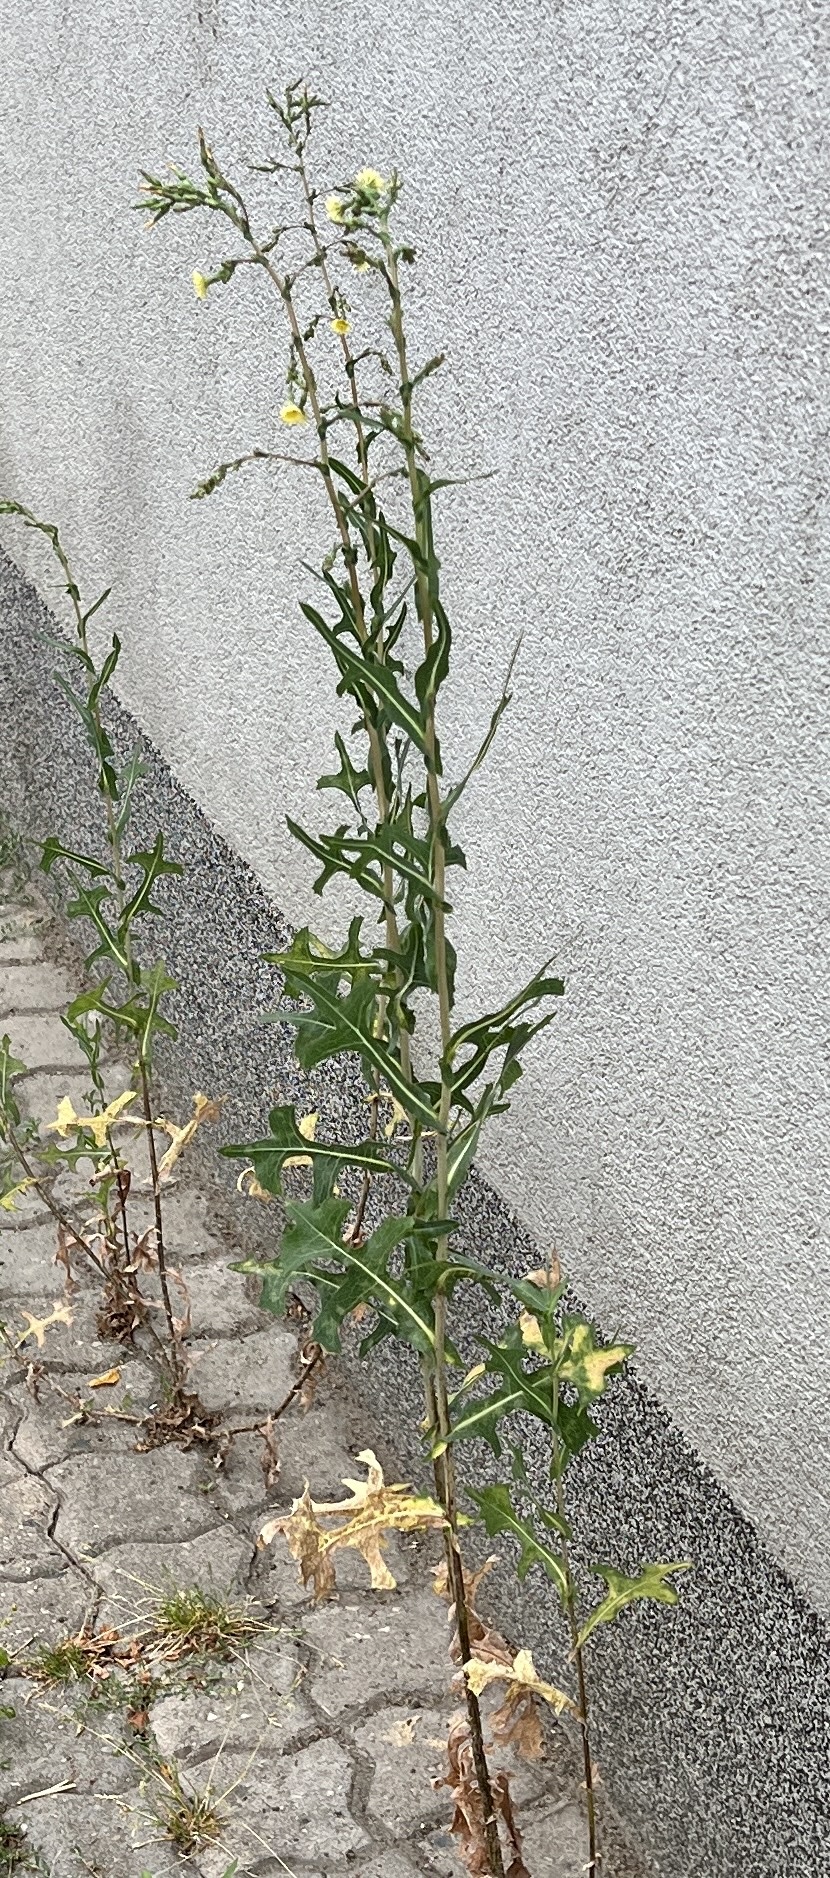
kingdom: Plantae
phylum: Tracheophyta
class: Magnoliopsida
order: Asterales
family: Asteraceae
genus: Lactuca
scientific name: Lactuca serriola
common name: Prickly lettuce
